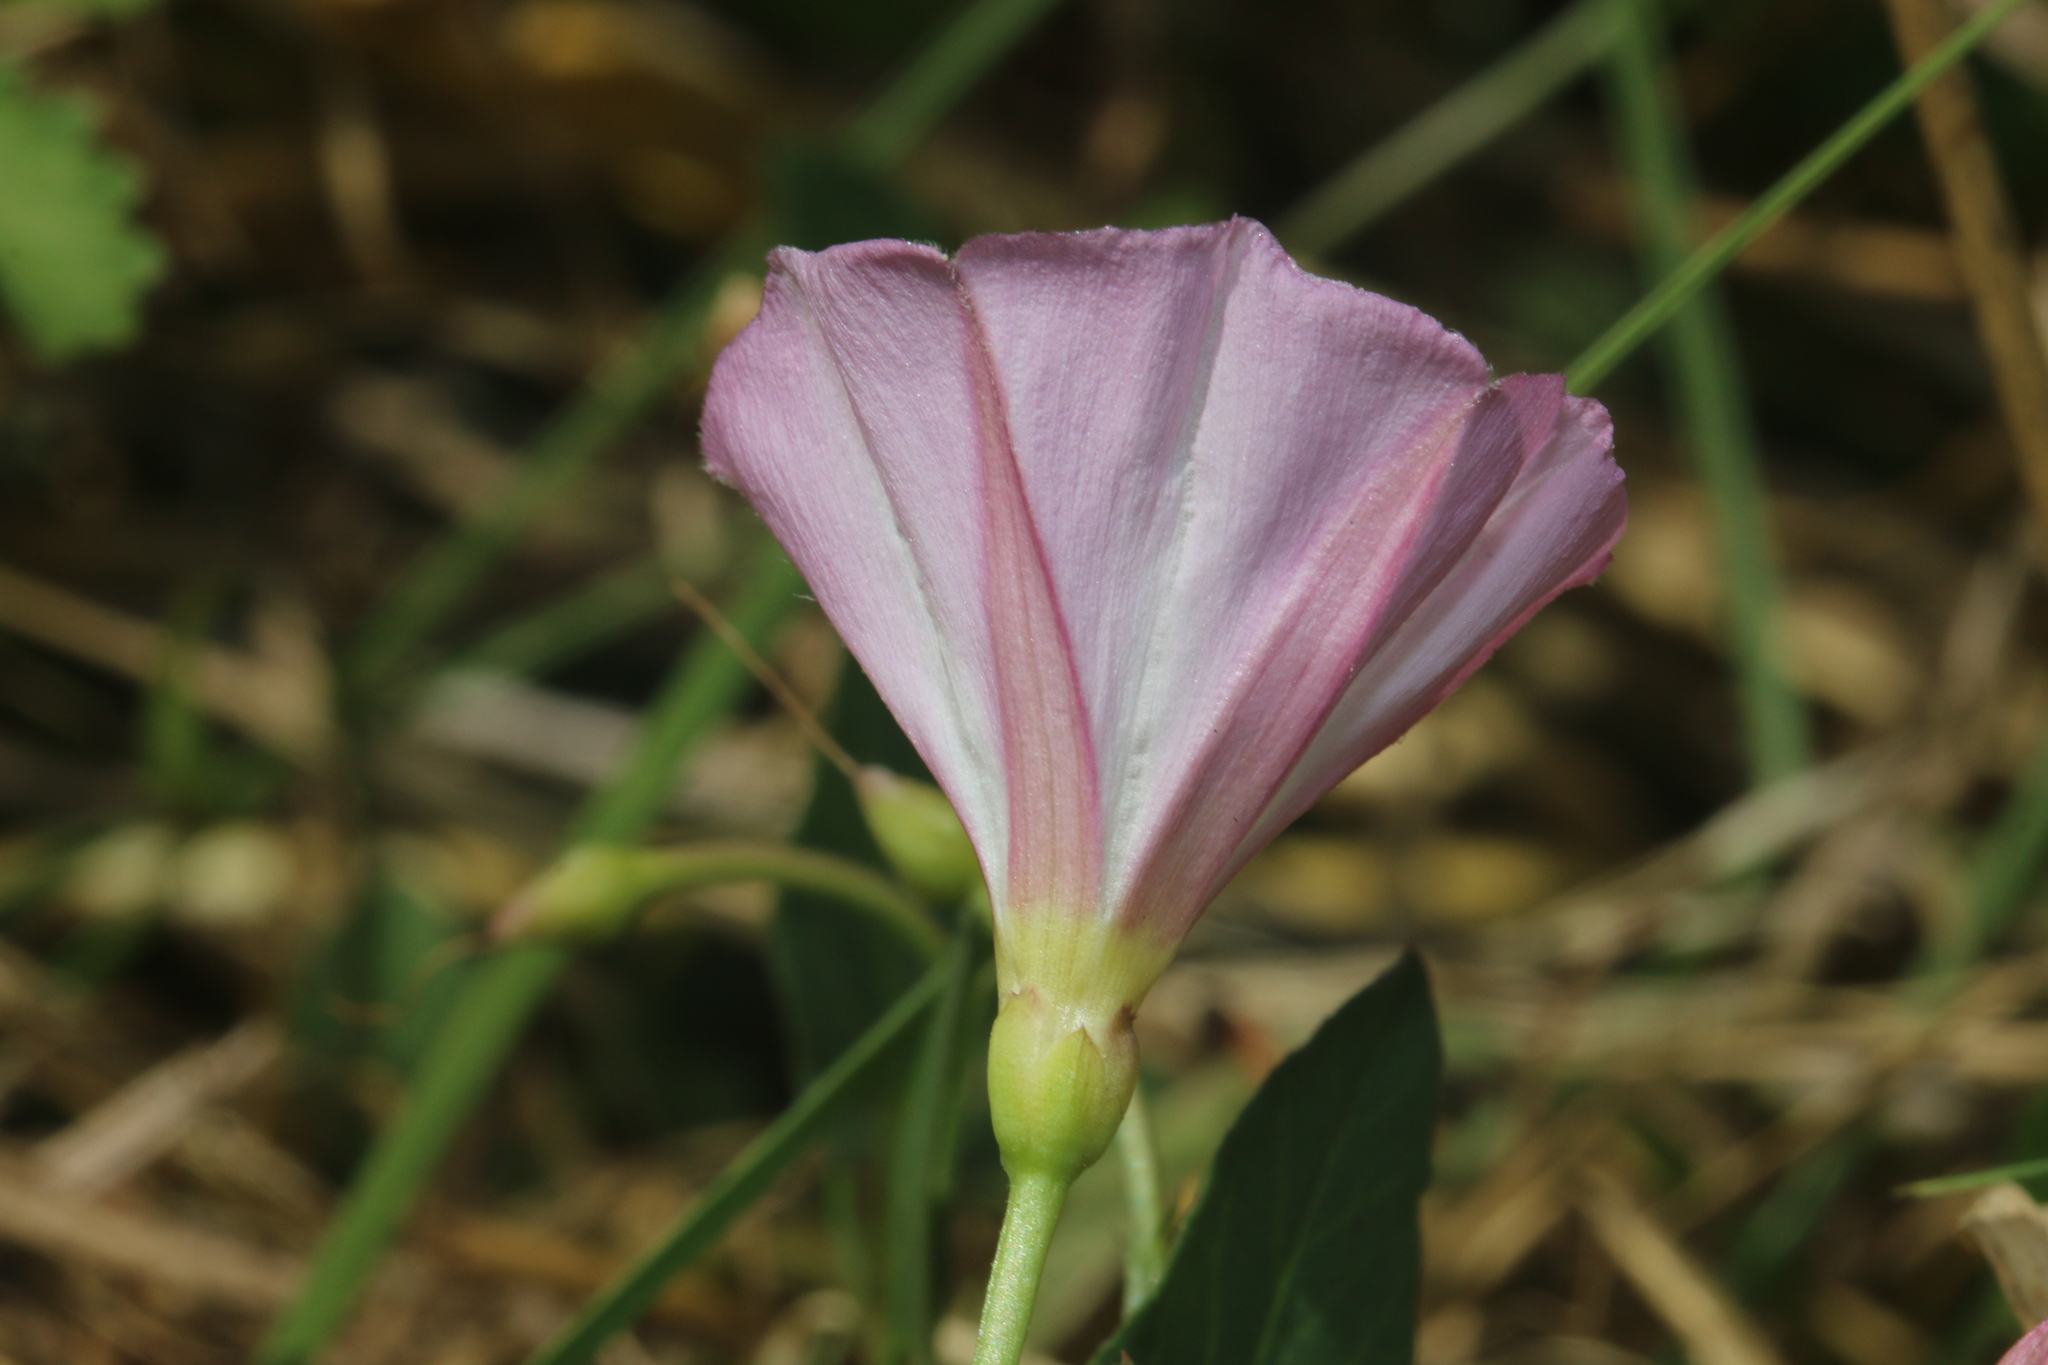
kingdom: Plantae
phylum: Tracheophyta
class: Magnoliopsida
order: Solanales
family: Convolvulaceae
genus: Convolvulus
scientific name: Convolvulus arvensis
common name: Field bindweed
